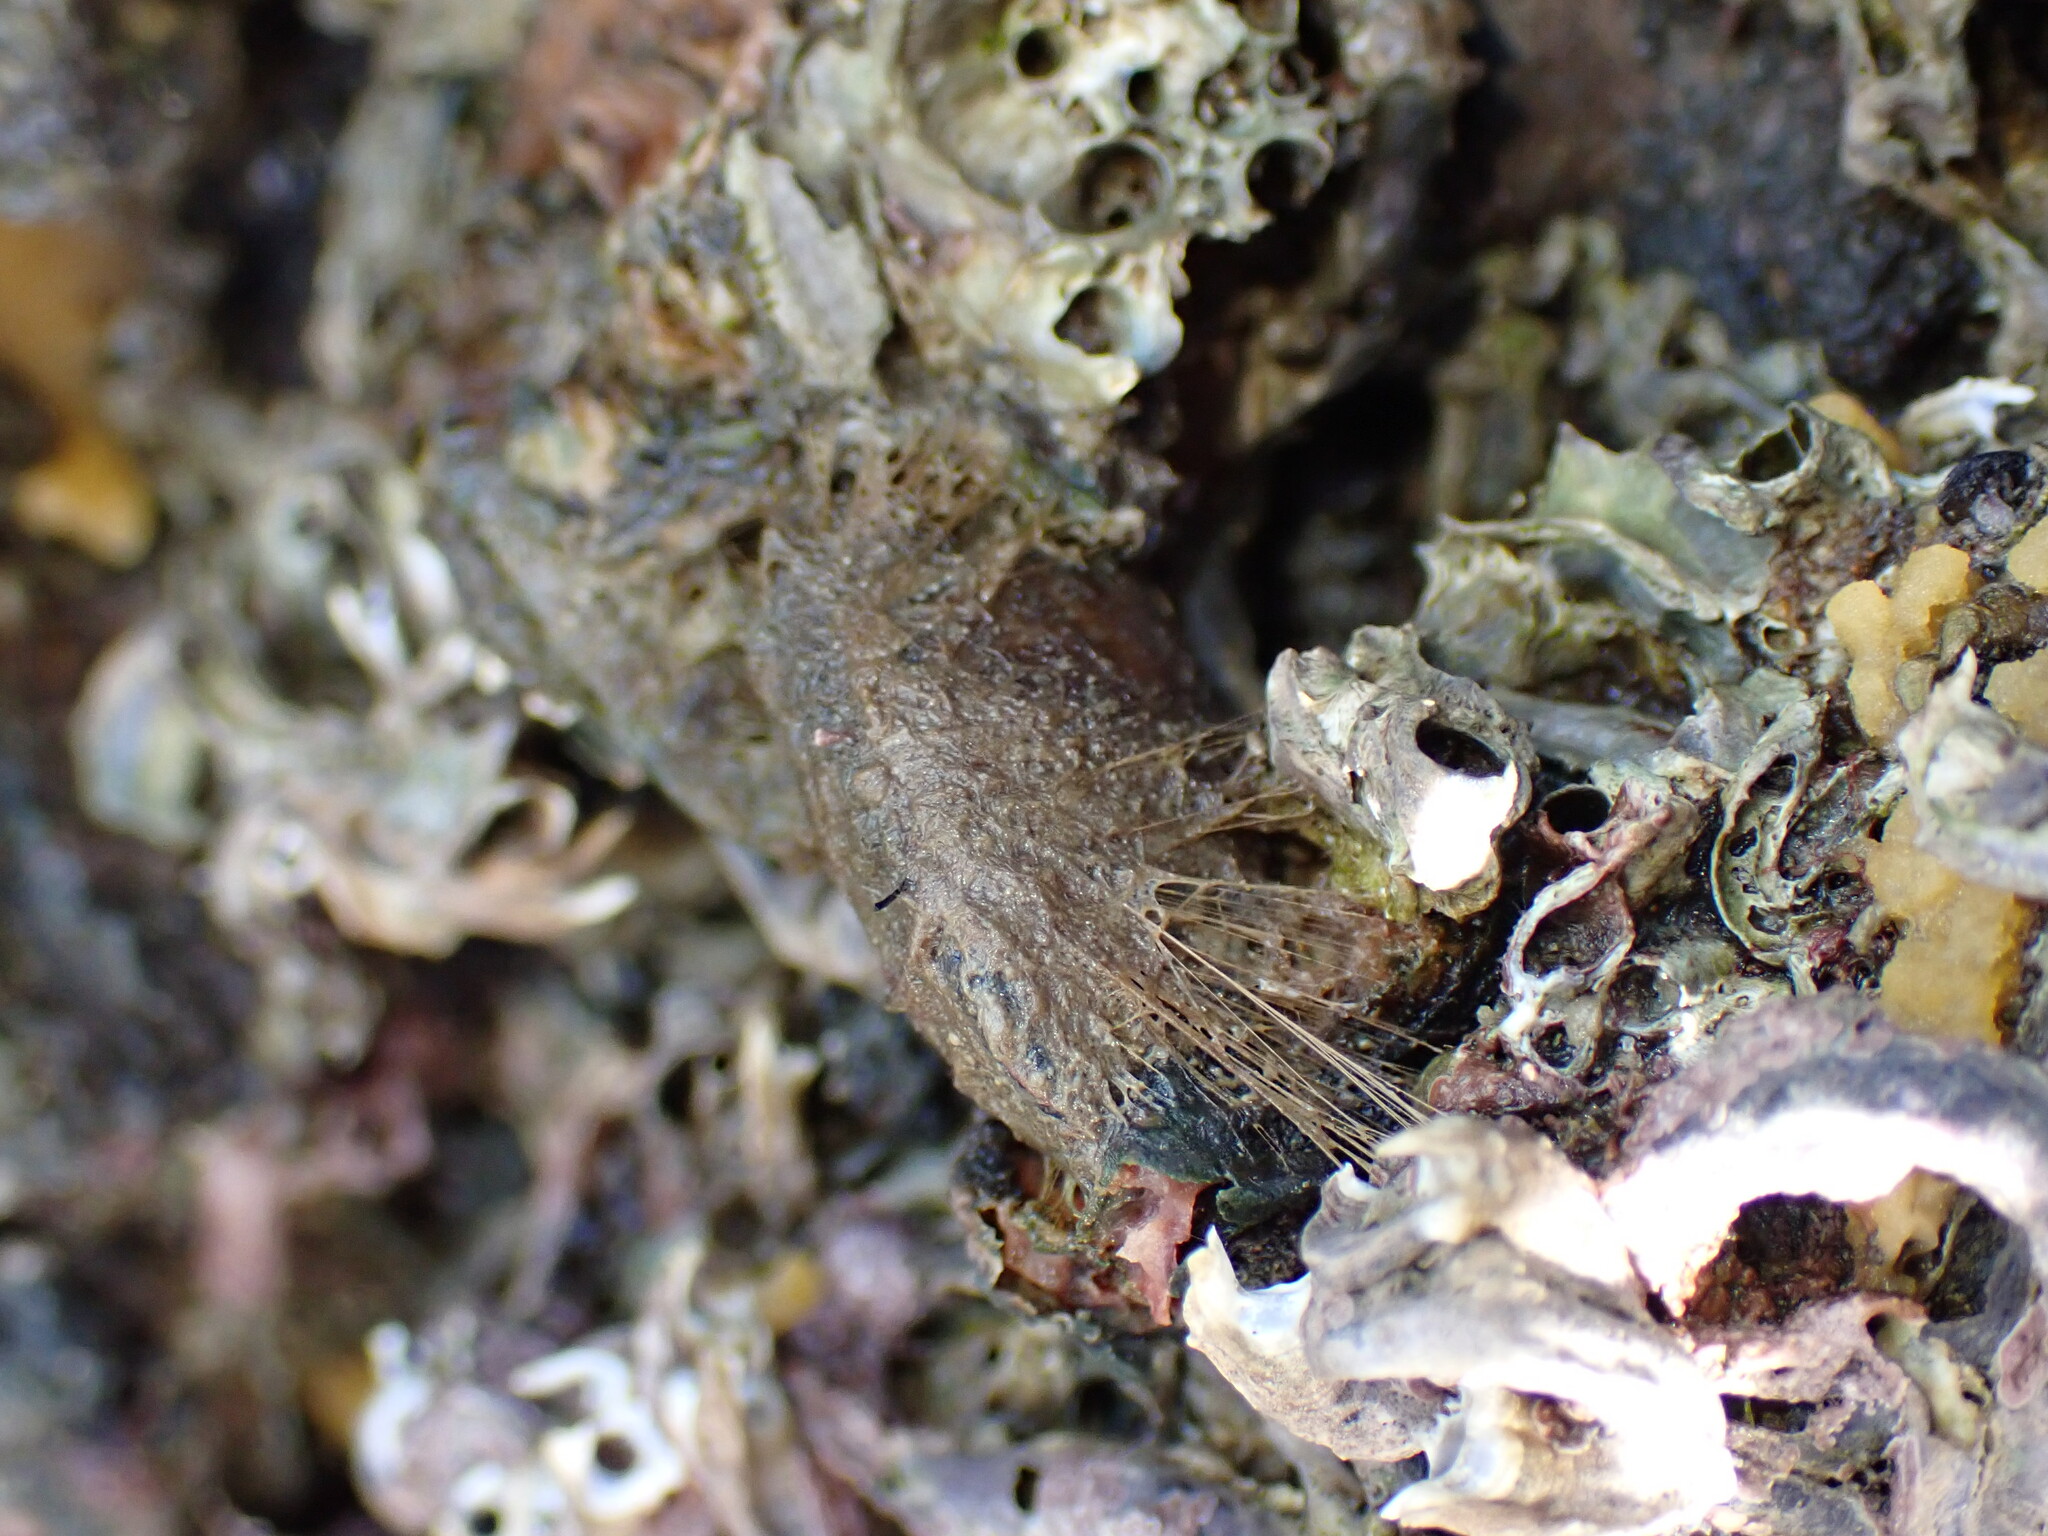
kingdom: Animalia
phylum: Mollusca
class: Bivalvia
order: Mytilida
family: Mytilidae
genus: Musculus
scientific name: Musculus impactus
